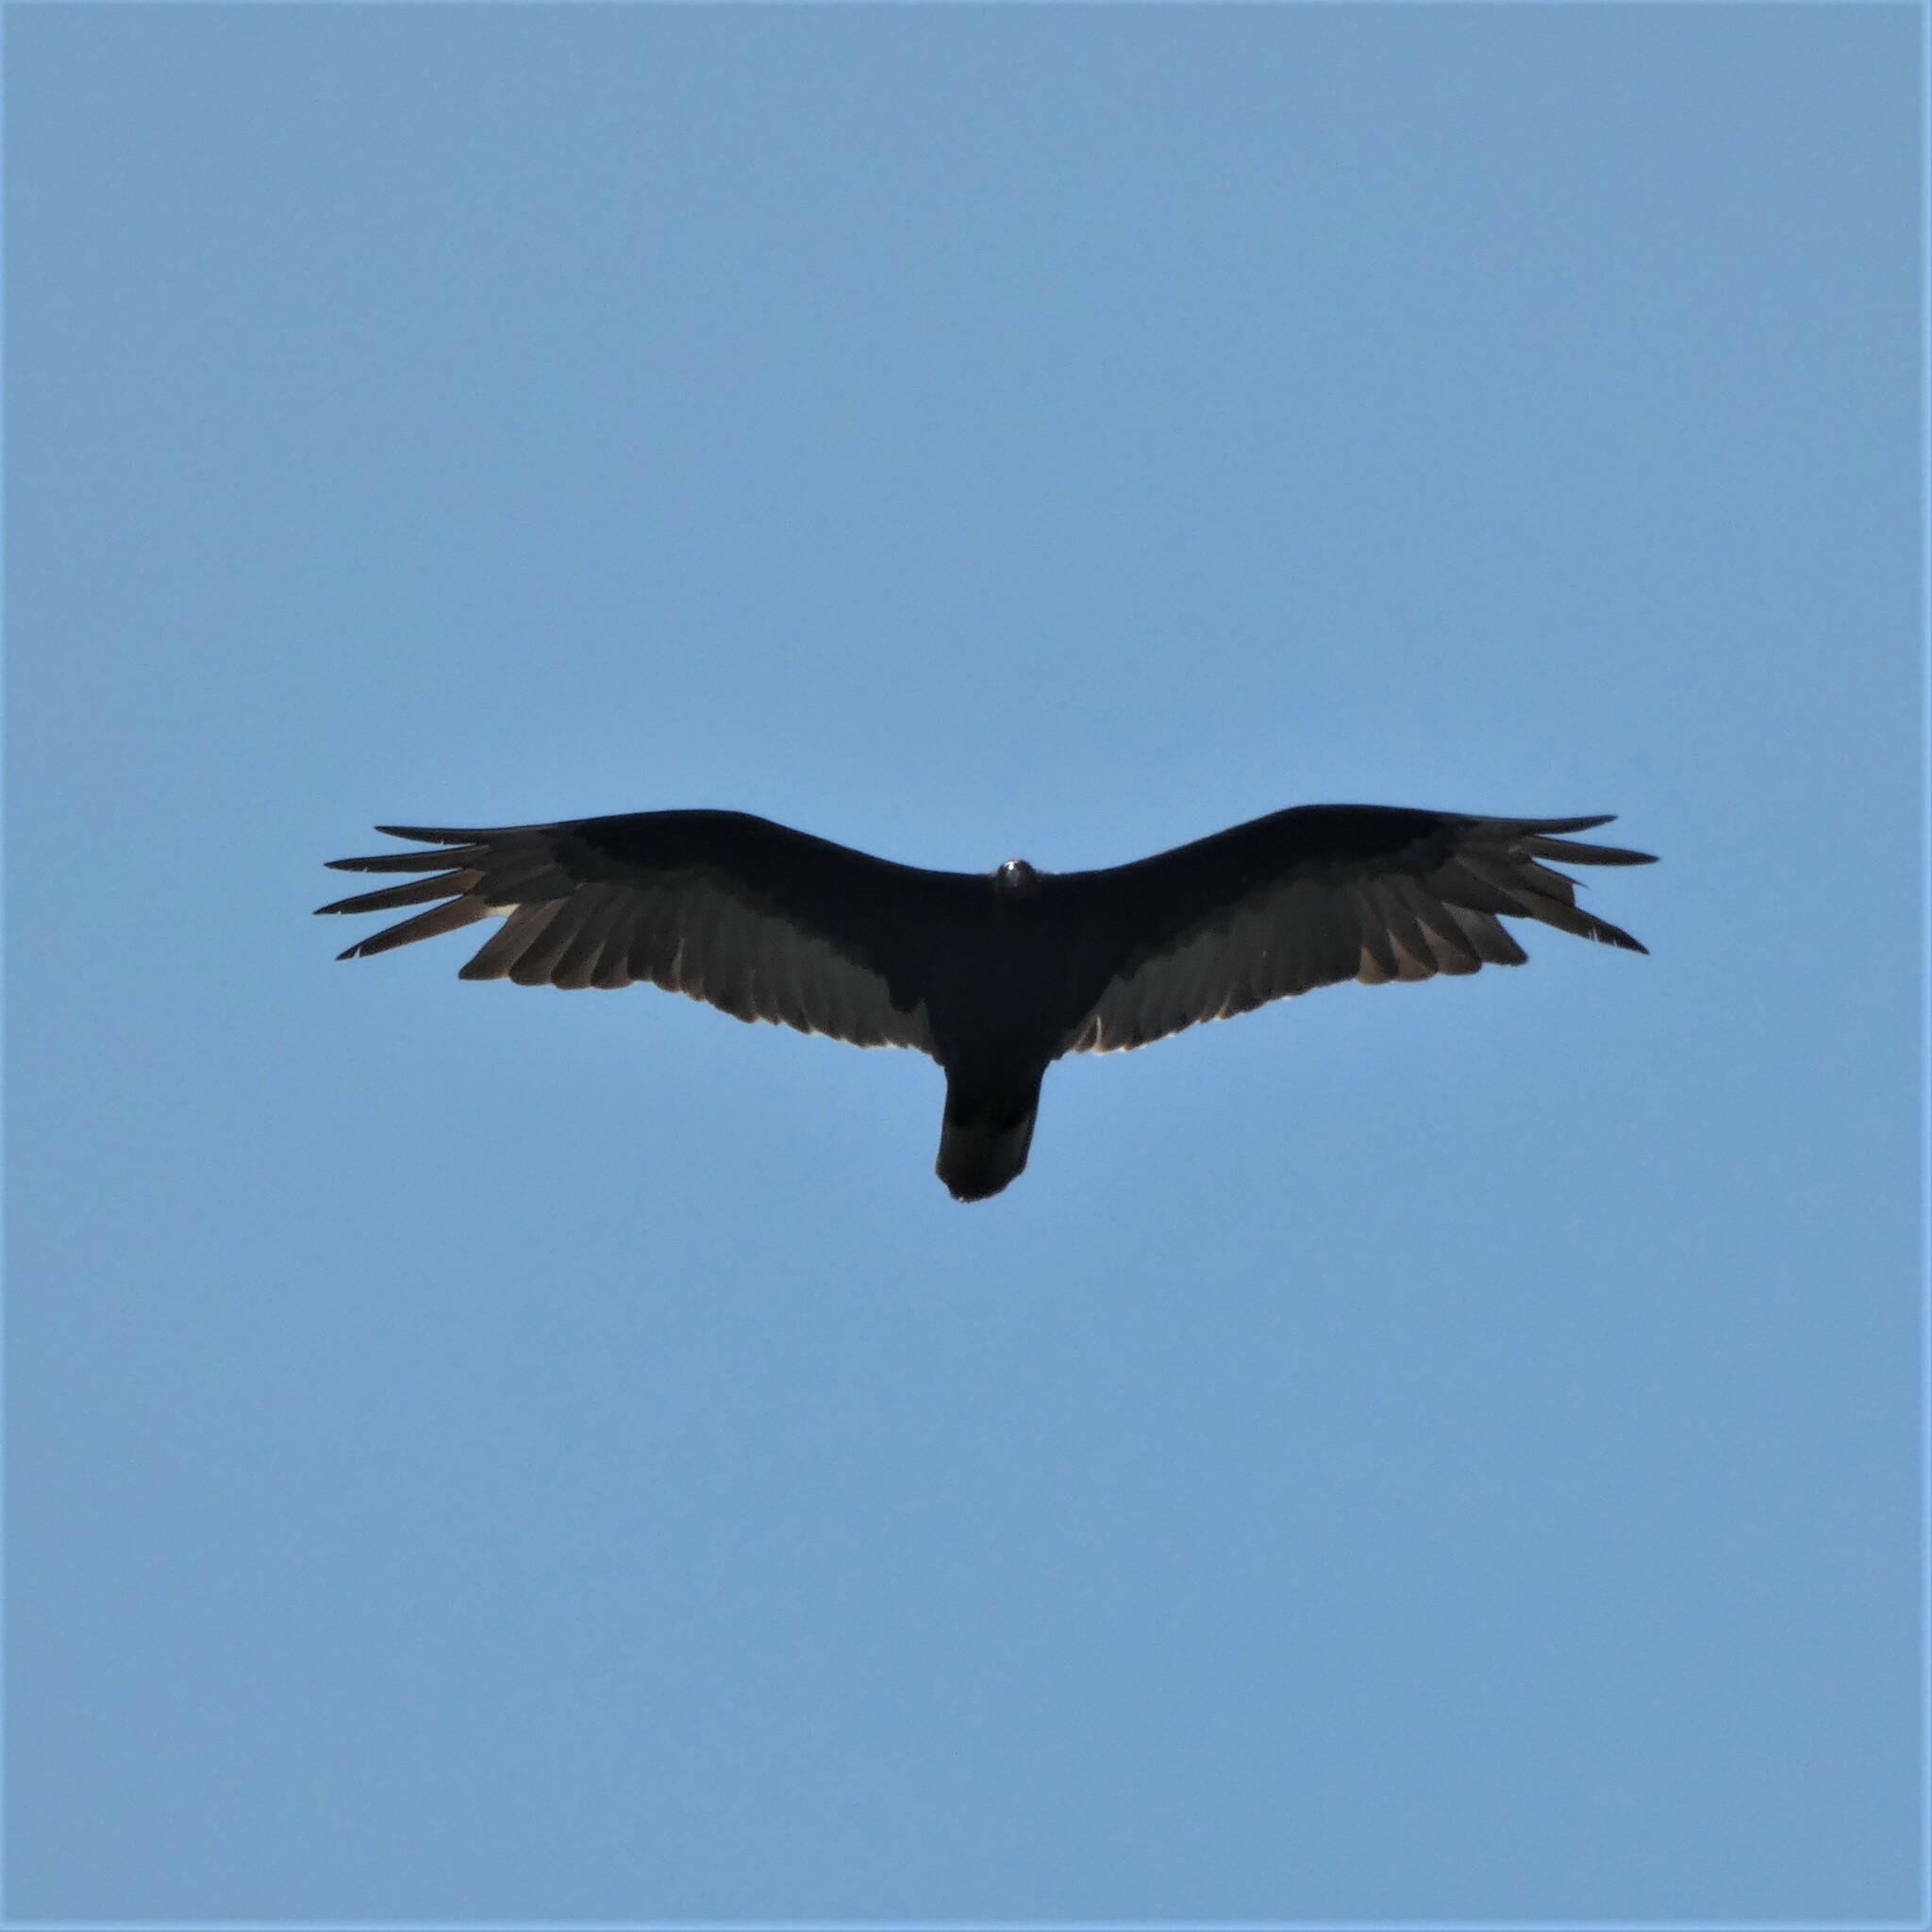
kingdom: Animalia
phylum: Chordata
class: Aves
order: Accipitriformes
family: Cathartidae
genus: Cathartes
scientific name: Cathartes aura
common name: Turkey vulture
